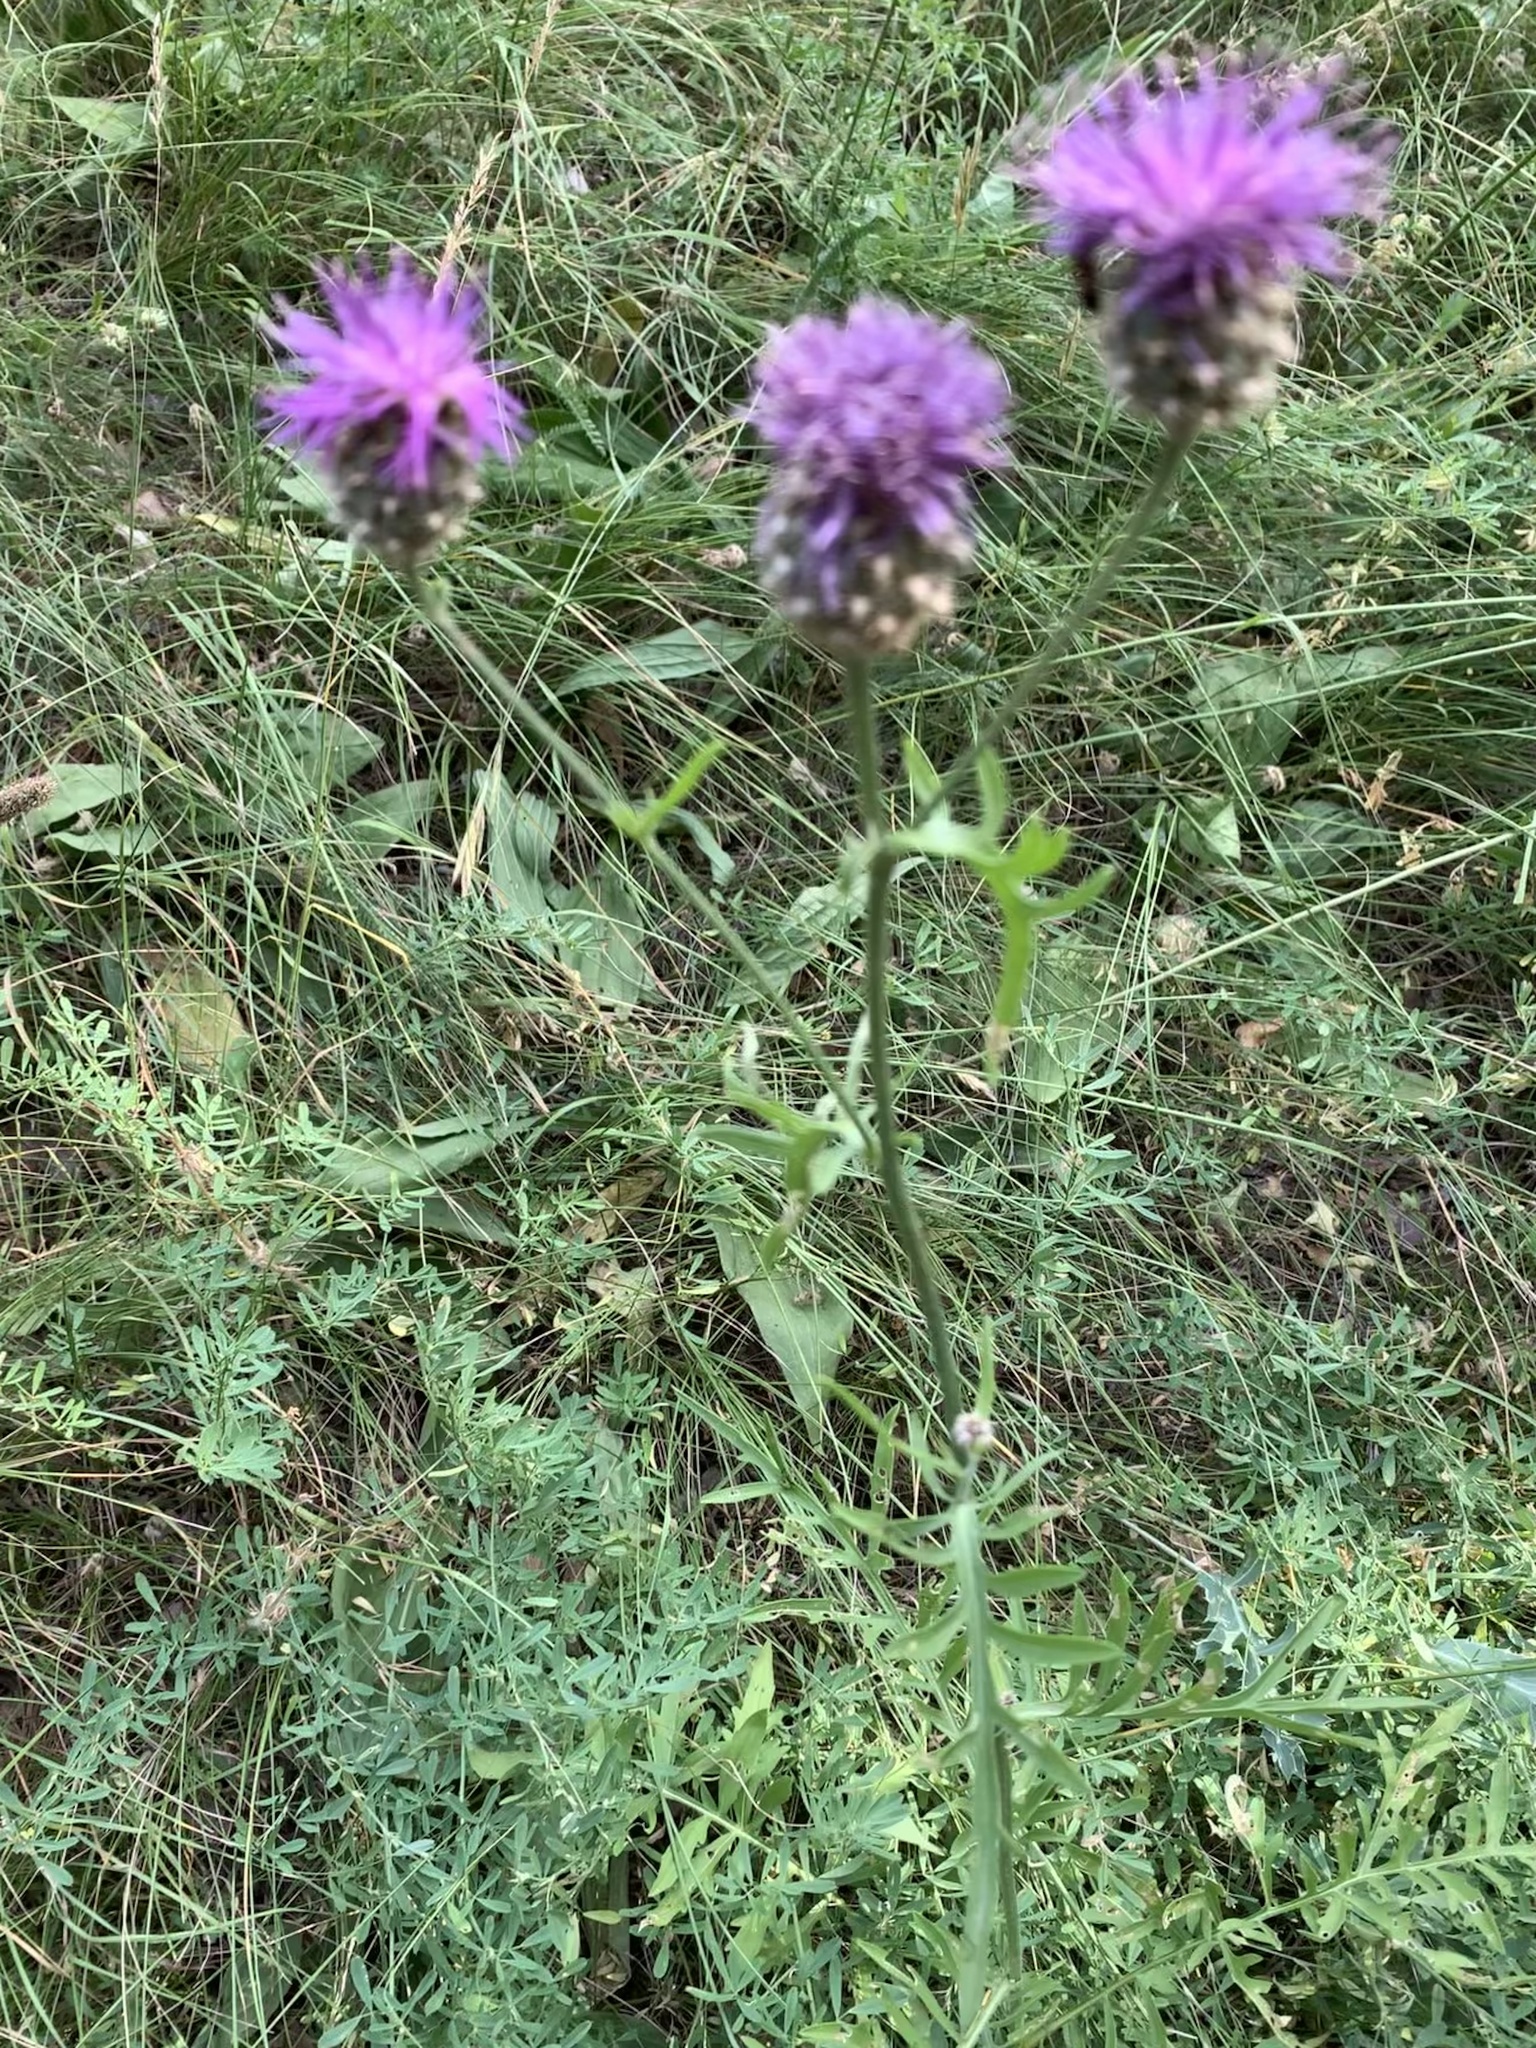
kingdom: Plantae
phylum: Tracheophyta
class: Magnoliopsida
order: Asterales
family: Asteraceae
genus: Centaurea
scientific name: Centaurea scabiosa
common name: Greater knapweed
